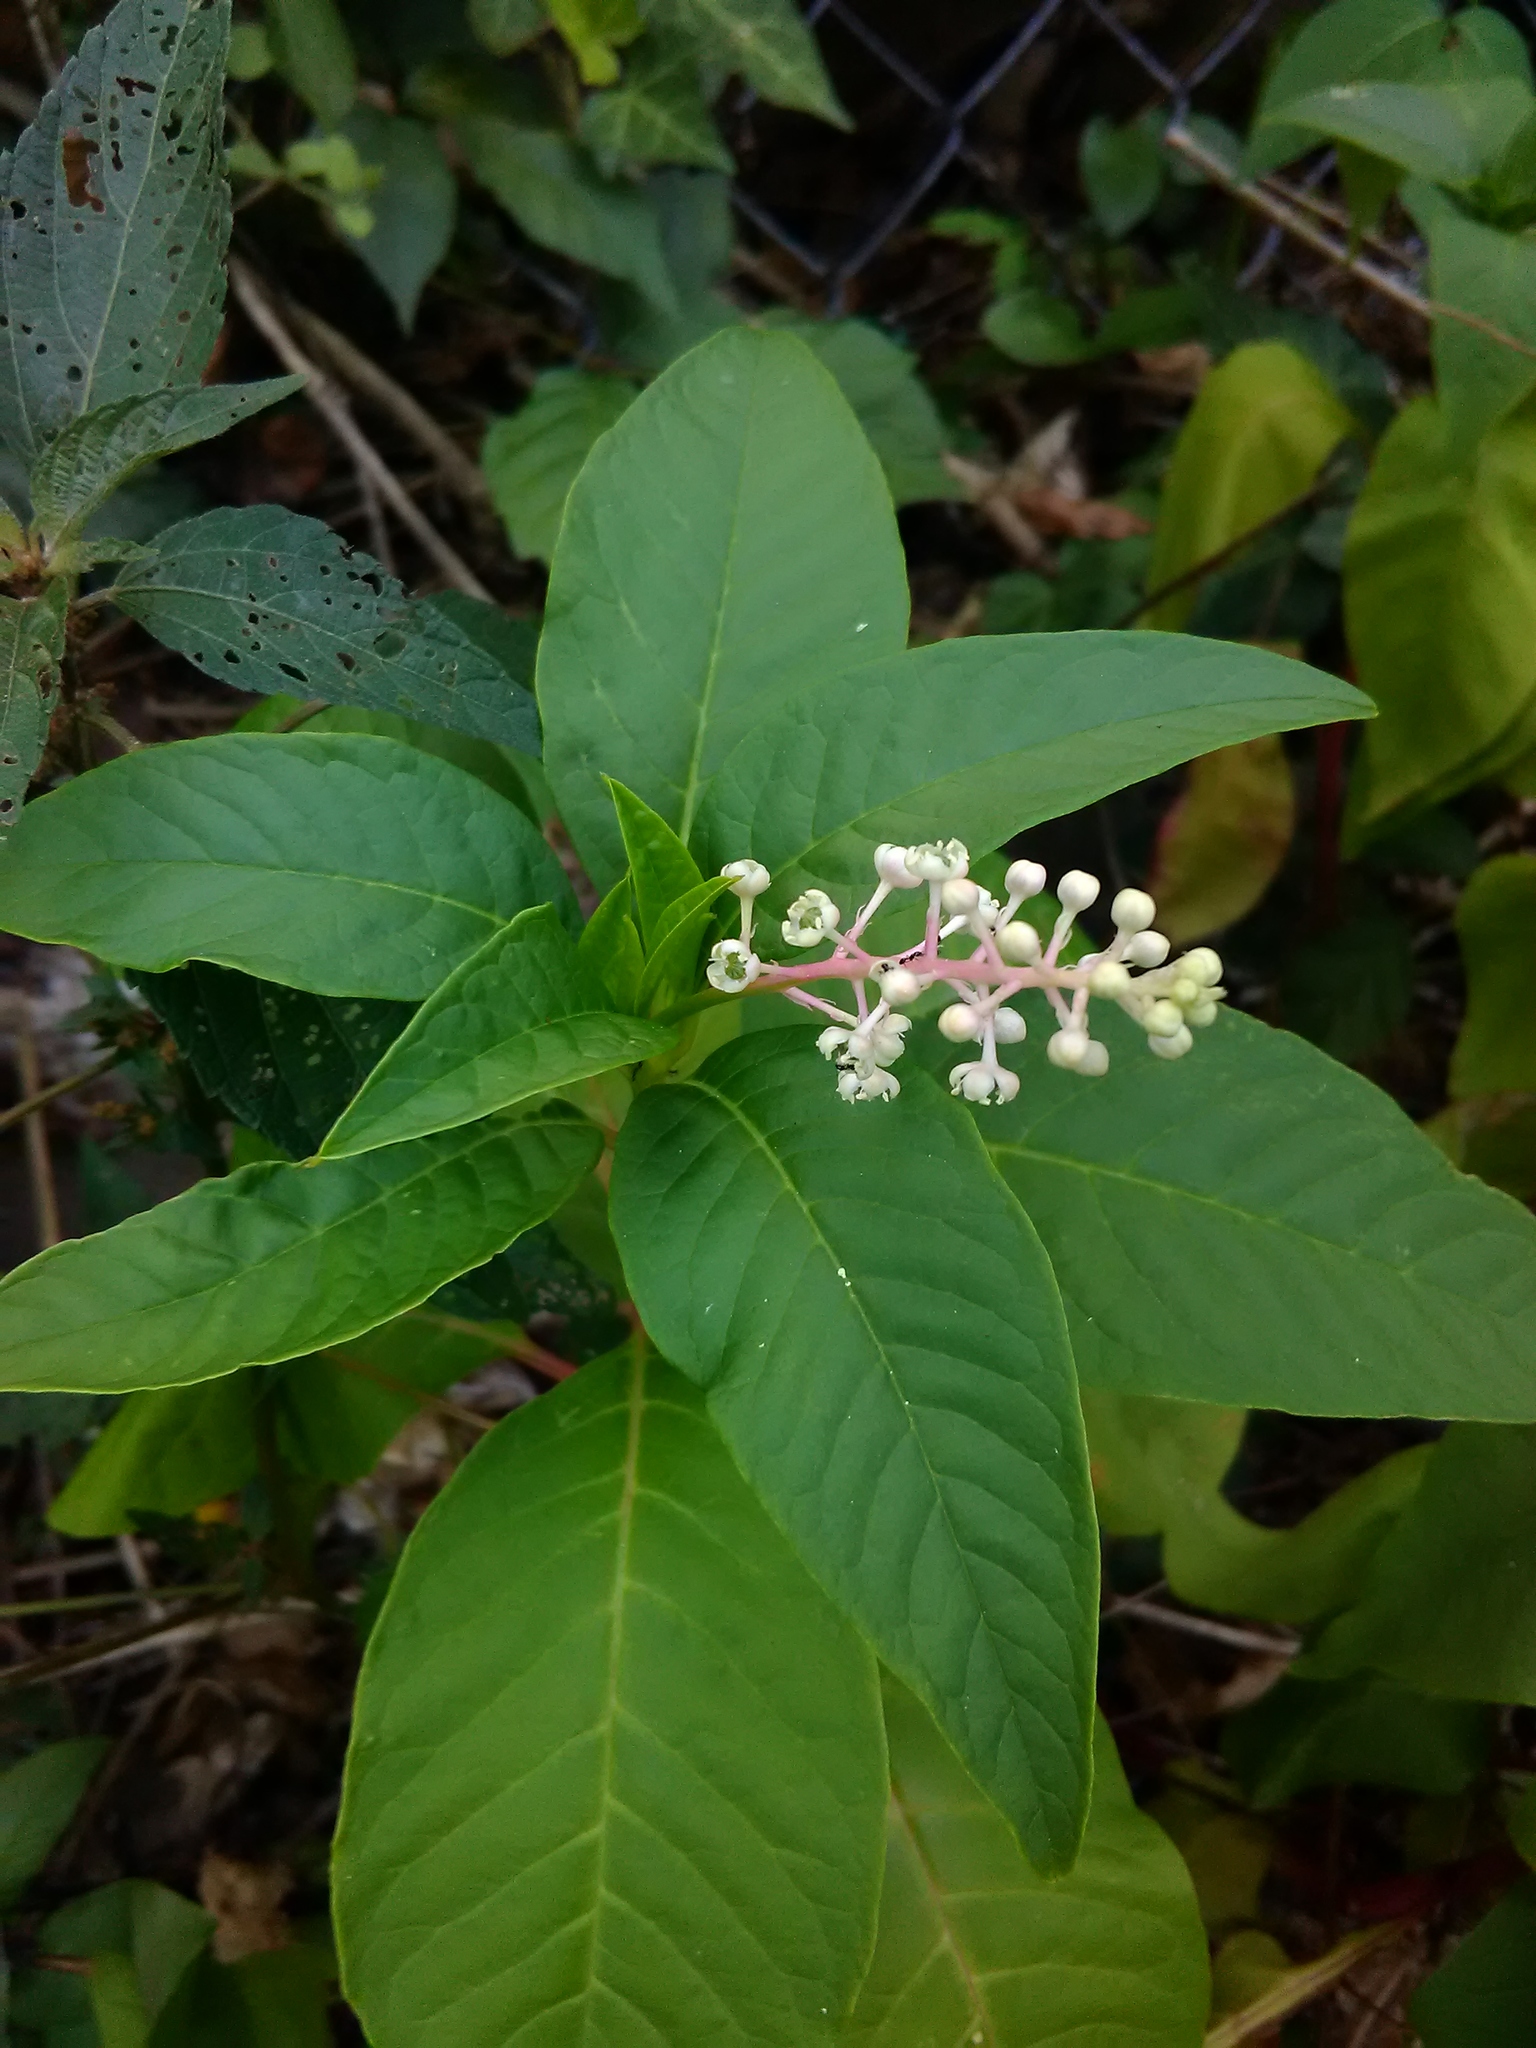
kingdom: Plantae
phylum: Tracheophyta
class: Magnoliopsida
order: Caryophyllales
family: Phytolaccaceae
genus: Phytolacca
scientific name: Phytolacca americana
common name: American pokeweed
